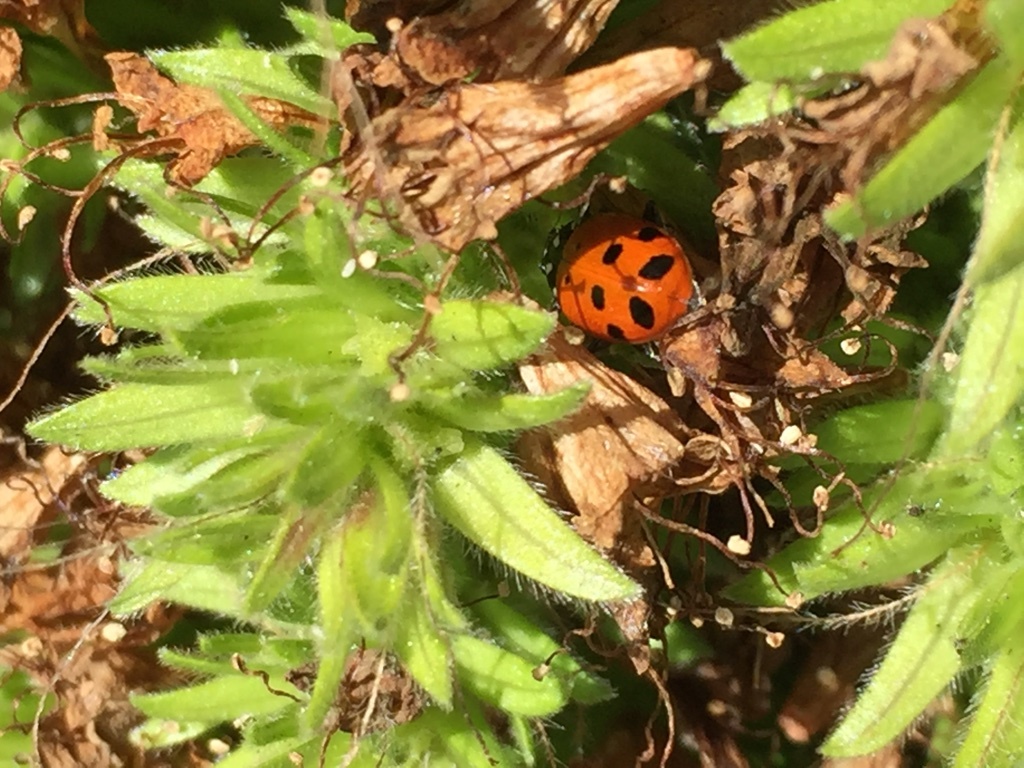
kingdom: Animalia
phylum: Arthropoda
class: Insecta
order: Coleoptera
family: Coccinellidae
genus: Hippodamia
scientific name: Hippodamia convergens
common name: Convergent lady beetle
